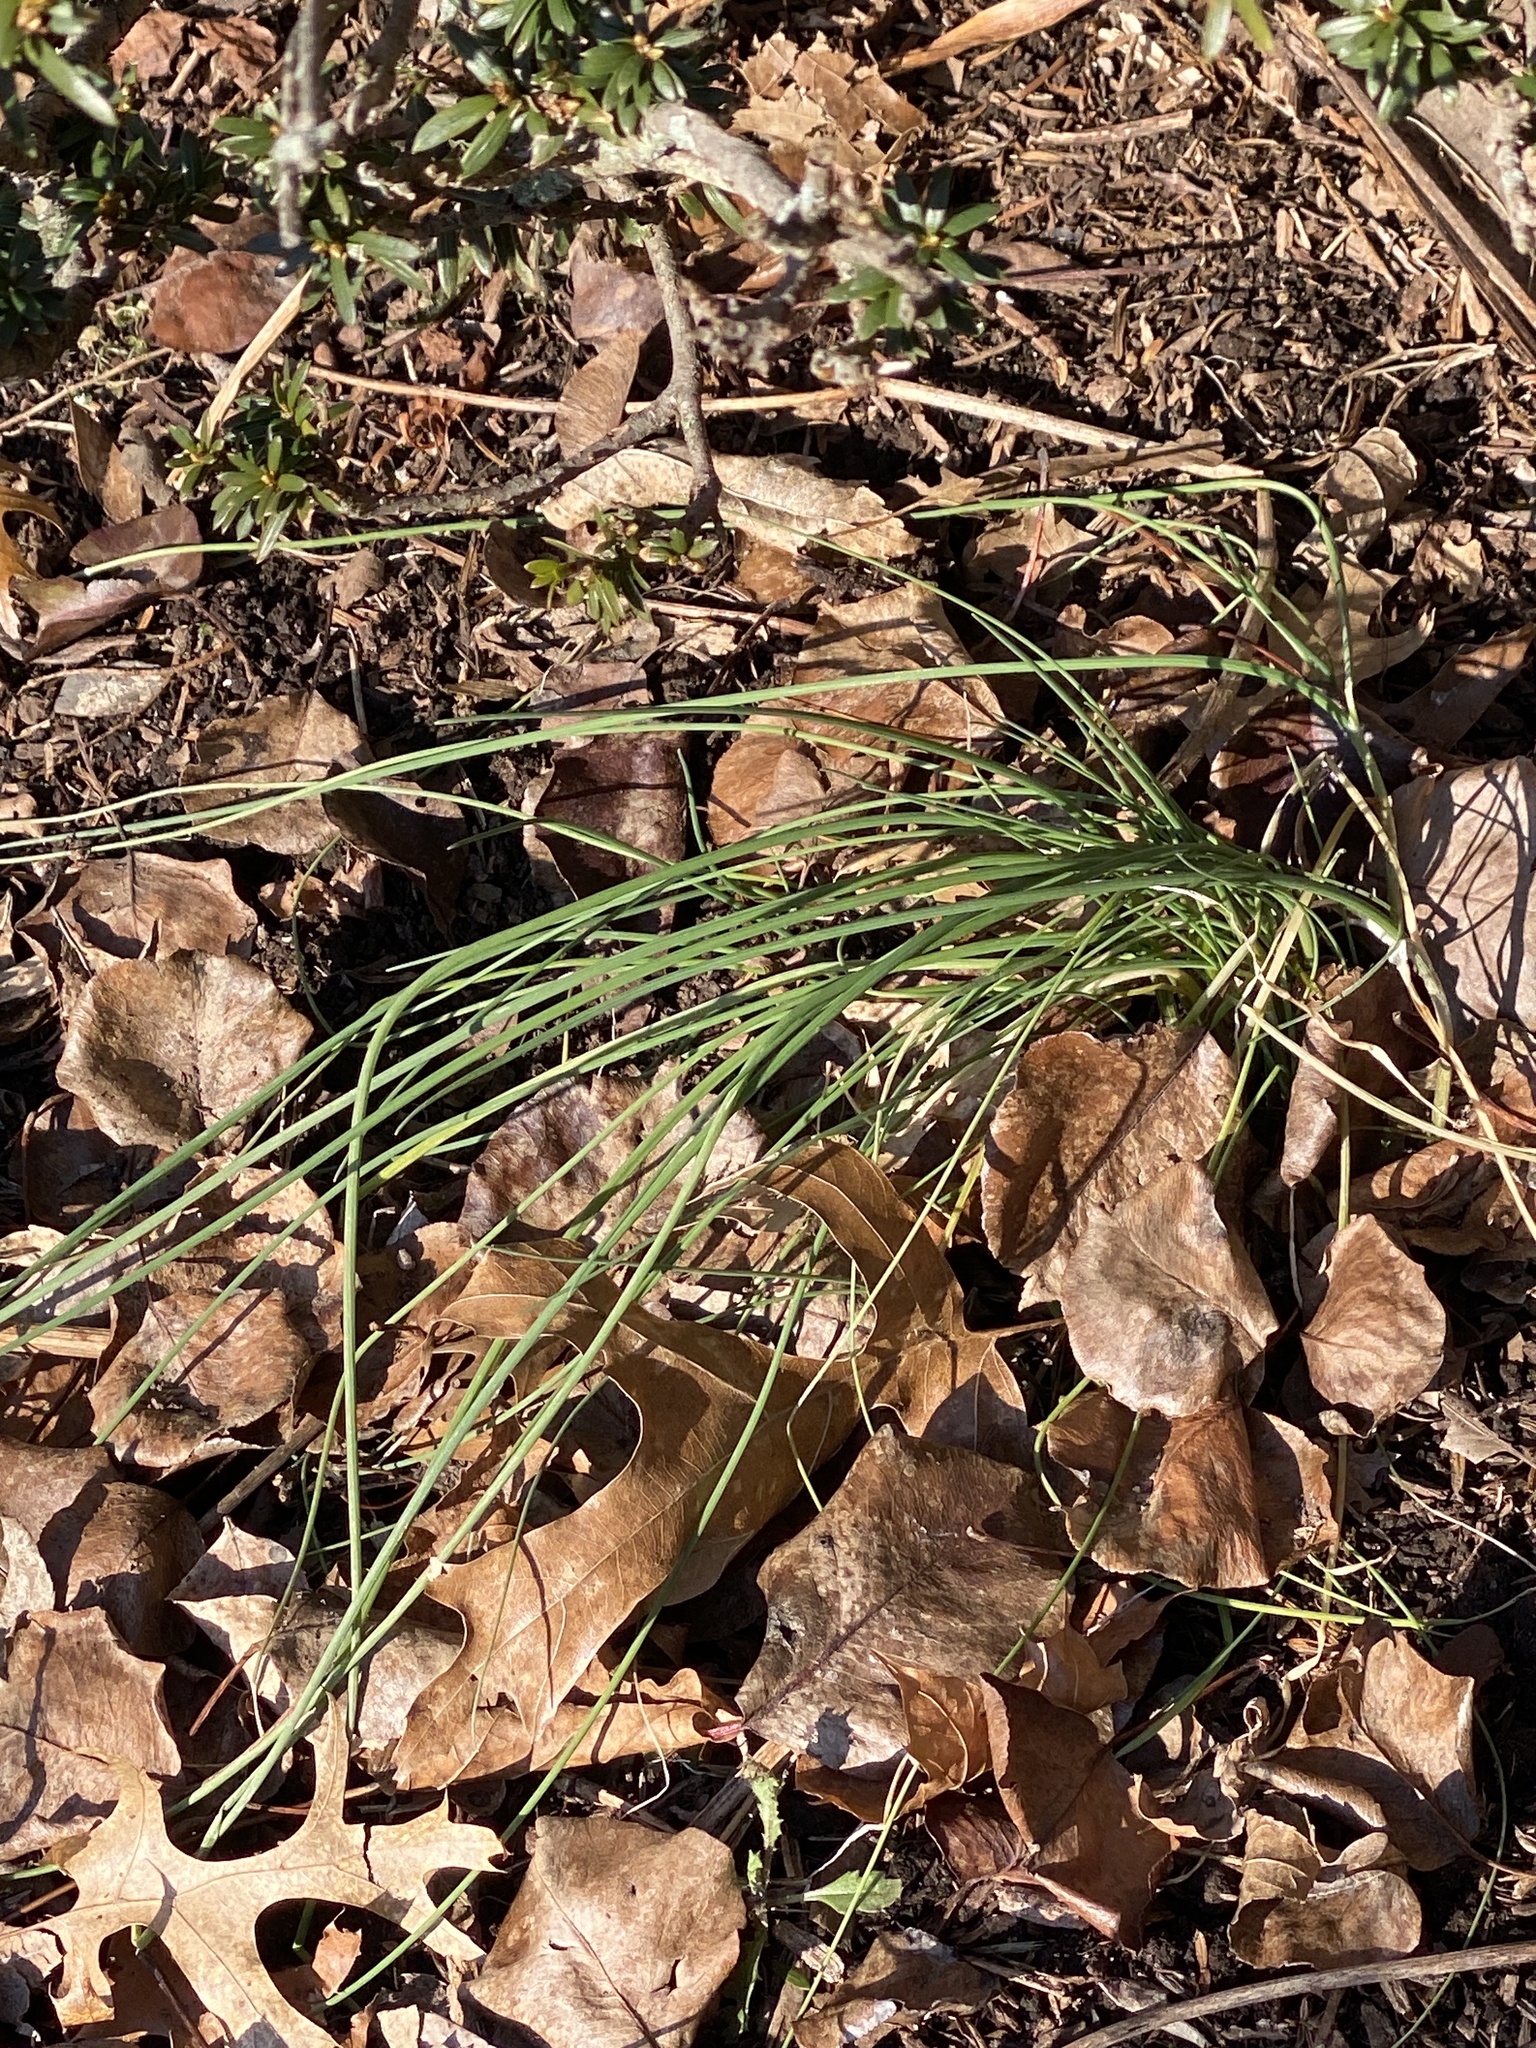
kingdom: Plantae
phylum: Tracheophyta
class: Liliopsida
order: Asparagales
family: Amaryllidaceae
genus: Allium
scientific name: Allium vineale
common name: Crow garlic
